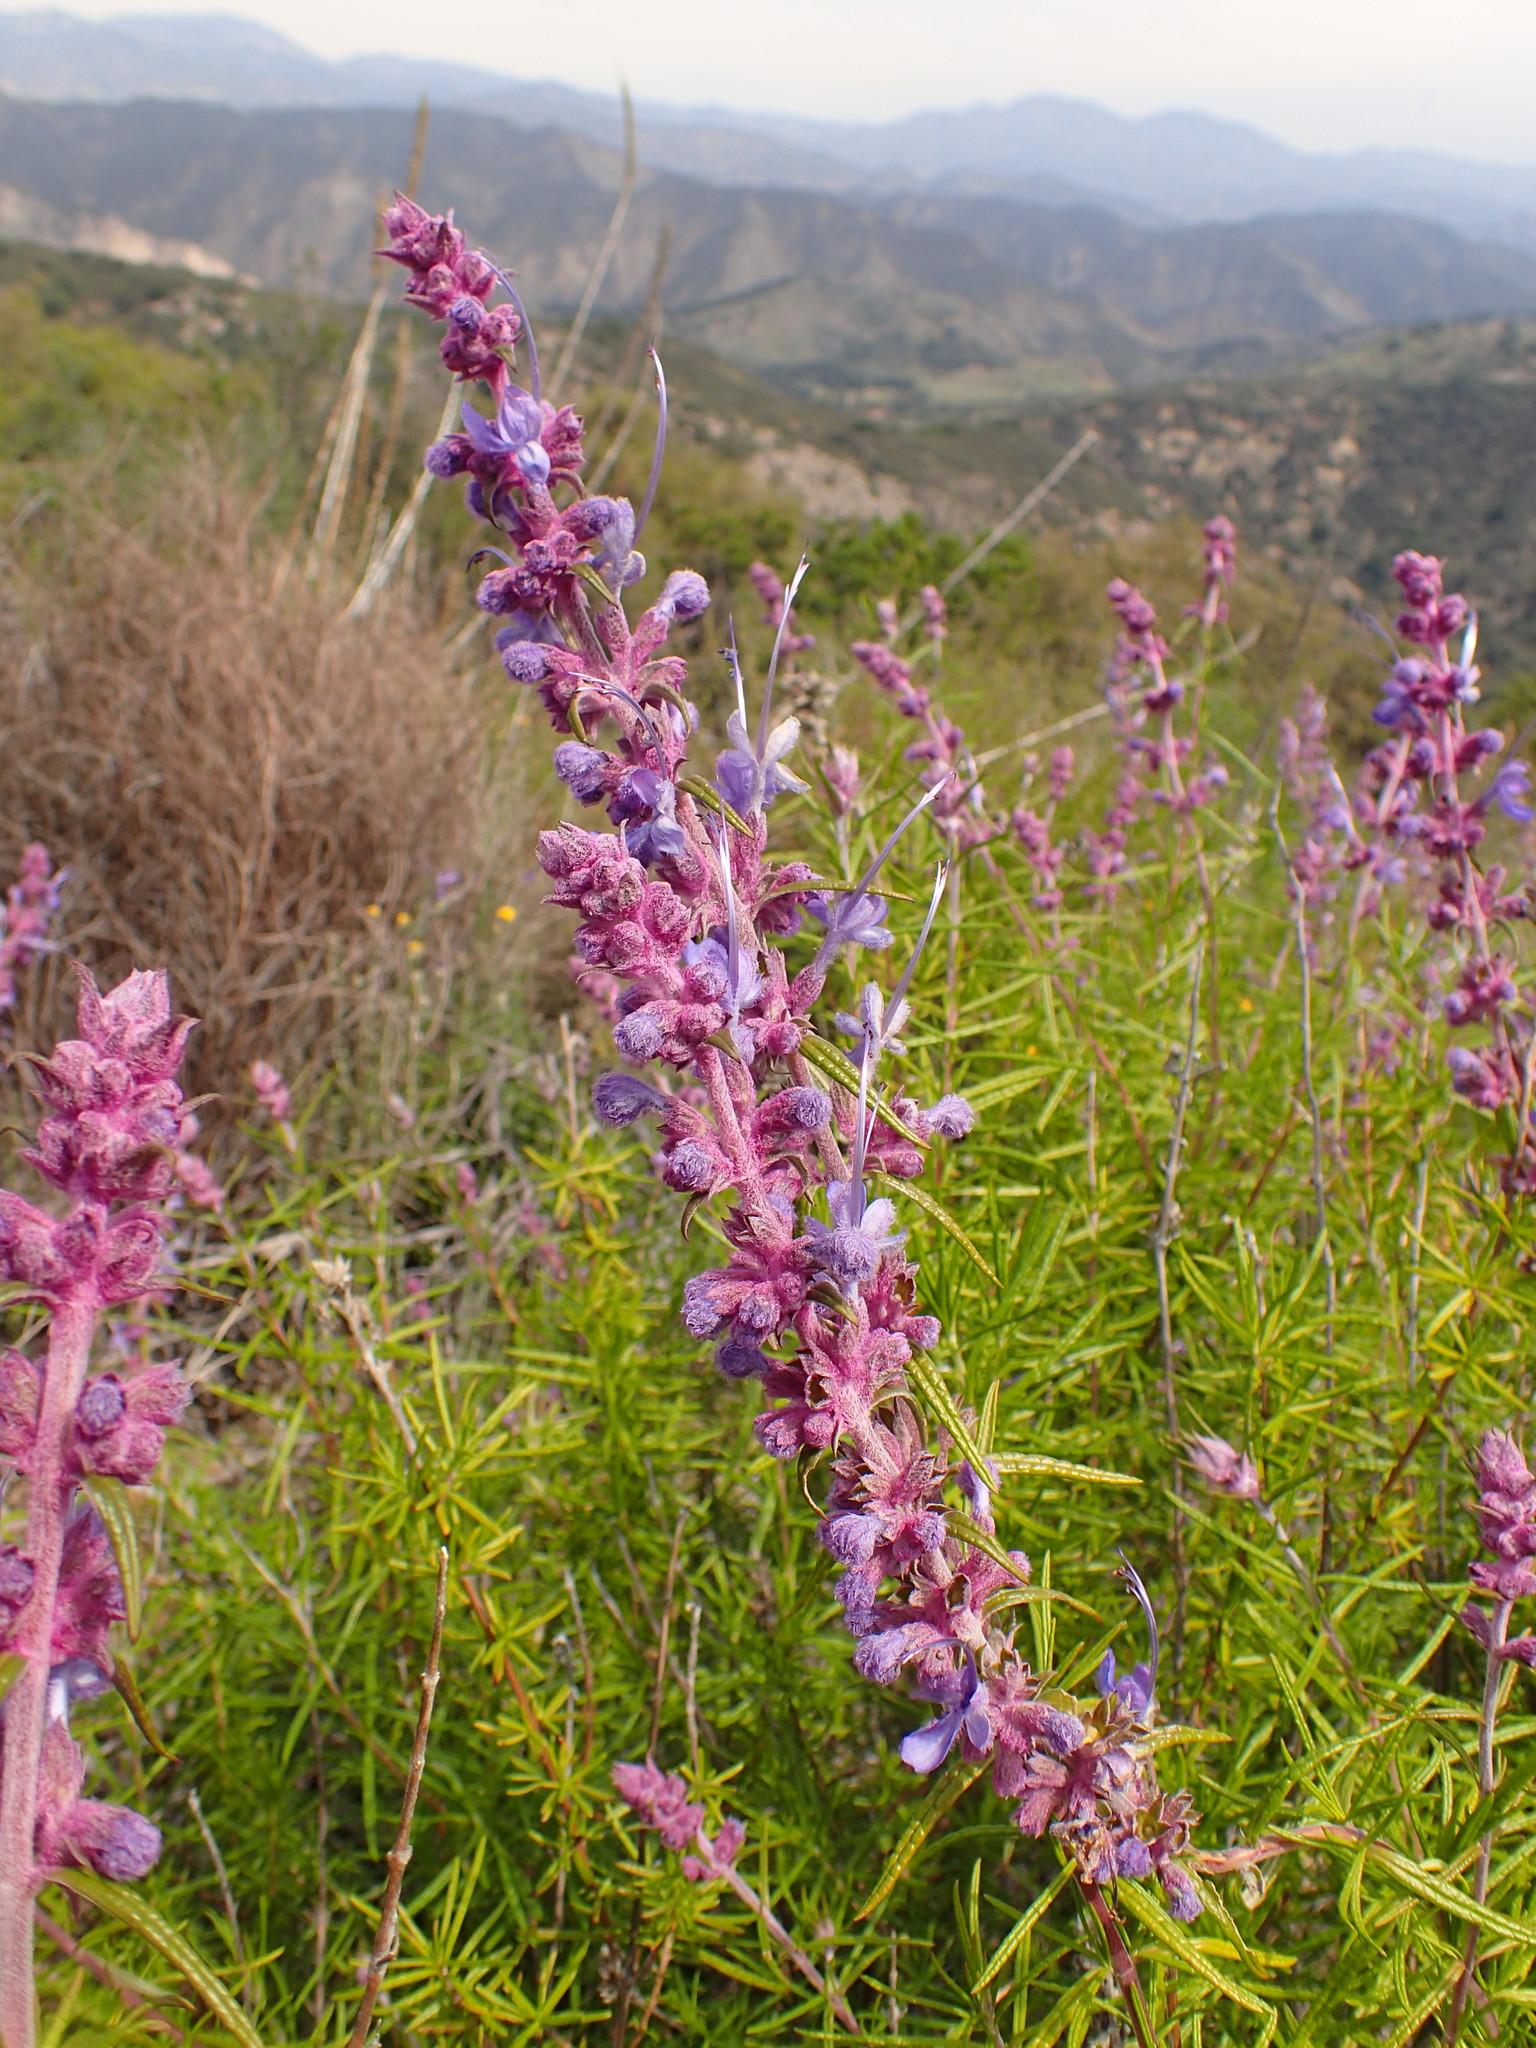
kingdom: Plantae
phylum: Tracheophyta
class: Magnoliopsida
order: Lamiales
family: Lamiaceae
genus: Trichostema
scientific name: Trichostema lanatum
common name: Woolly bluecurls
